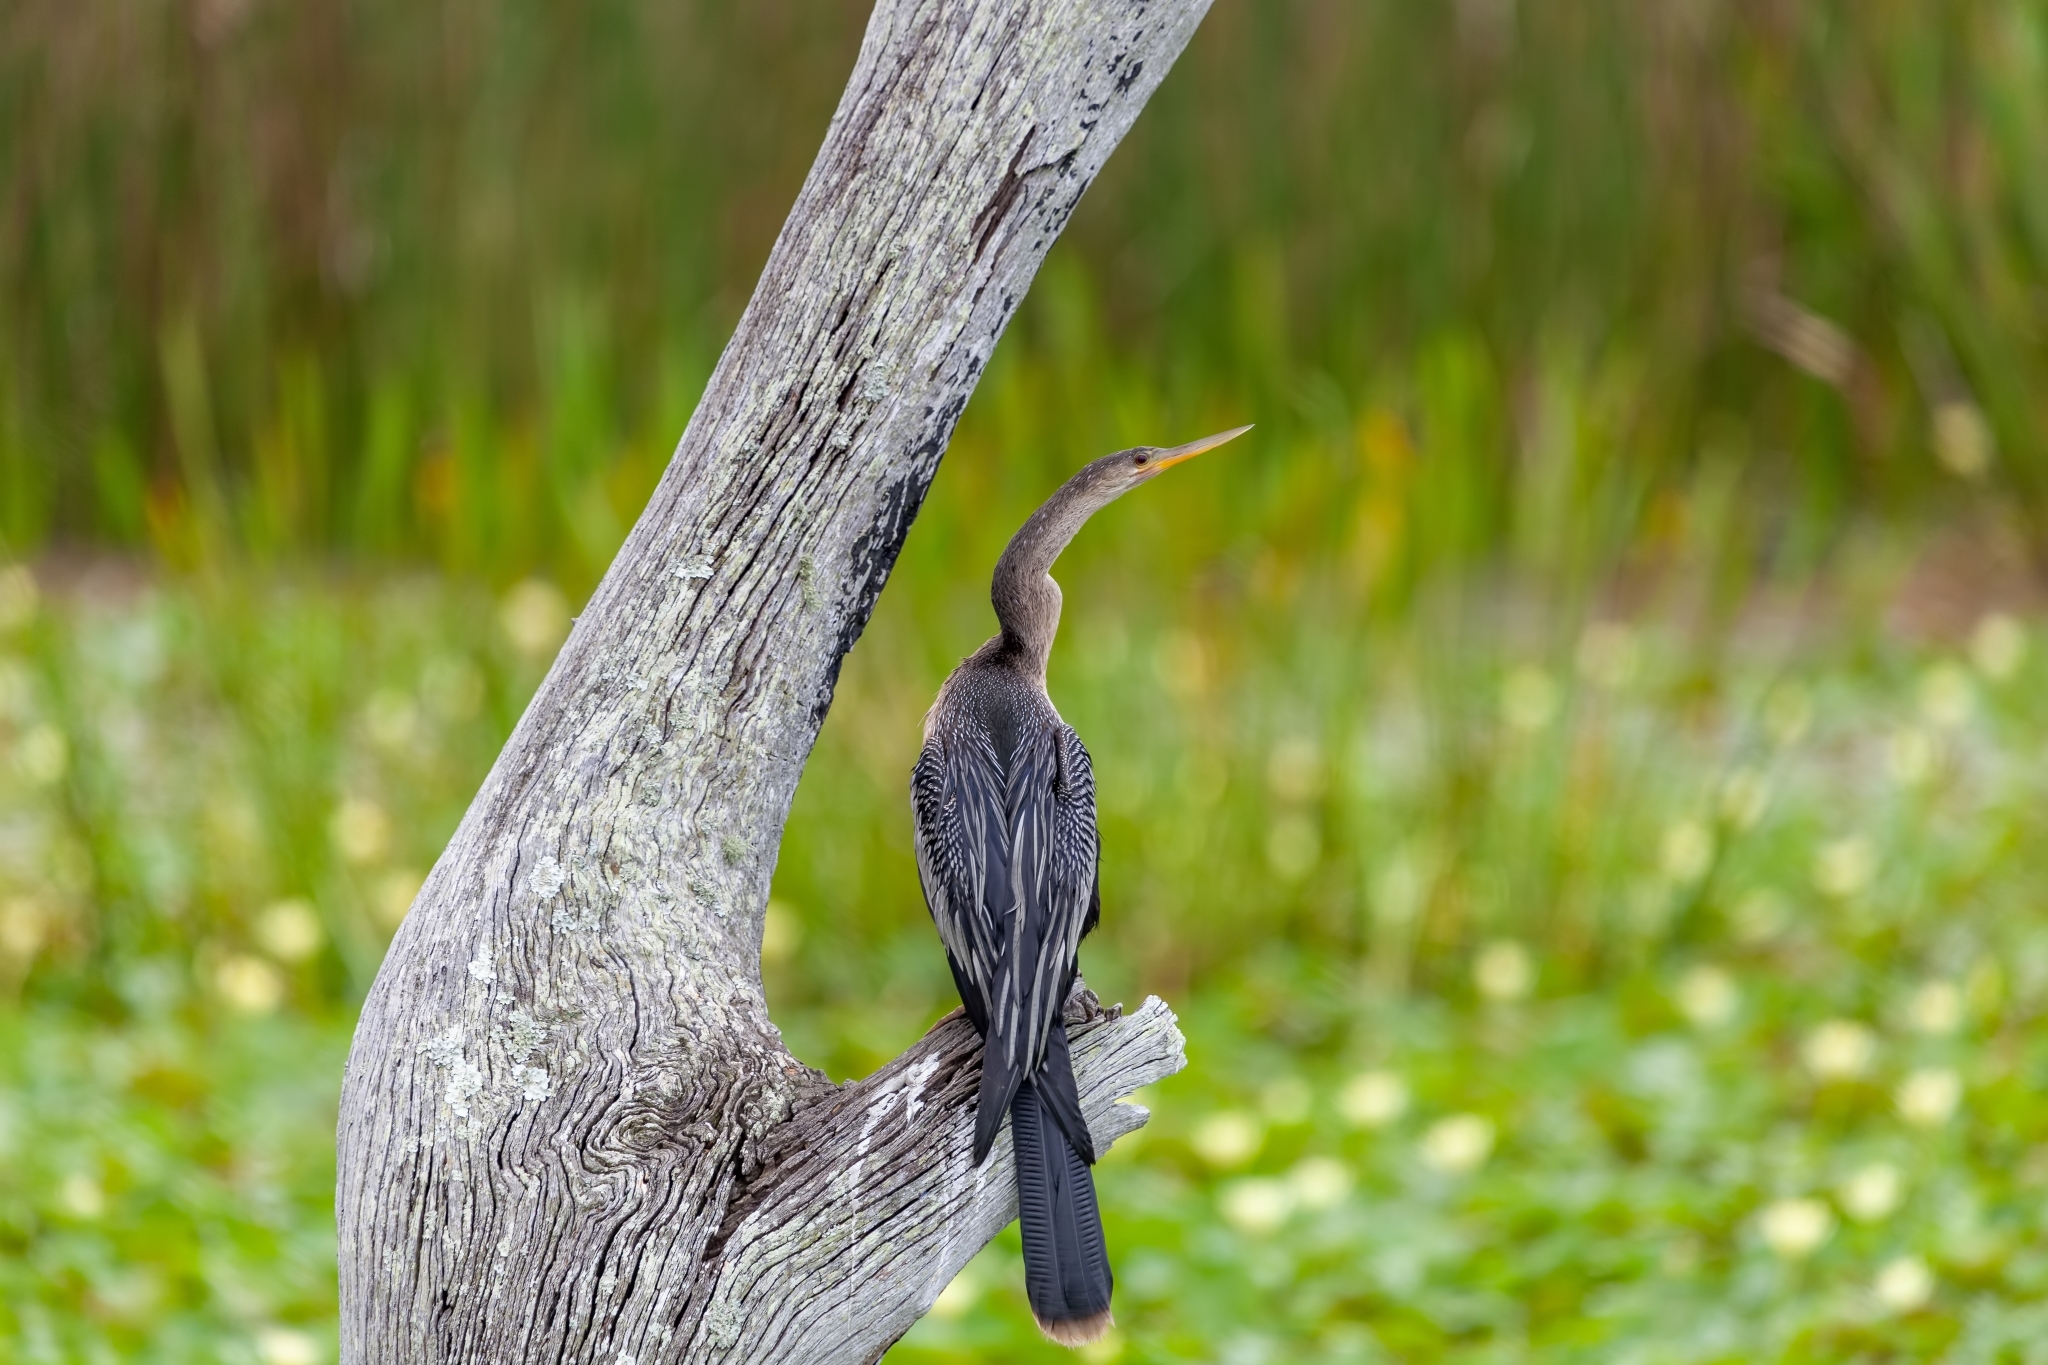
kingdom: Animalia
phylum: Chordata
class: Aves
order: Suliformes
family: Anhingidae
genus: Anhinga
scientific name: Anhinga anhinga
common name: Anhinga
